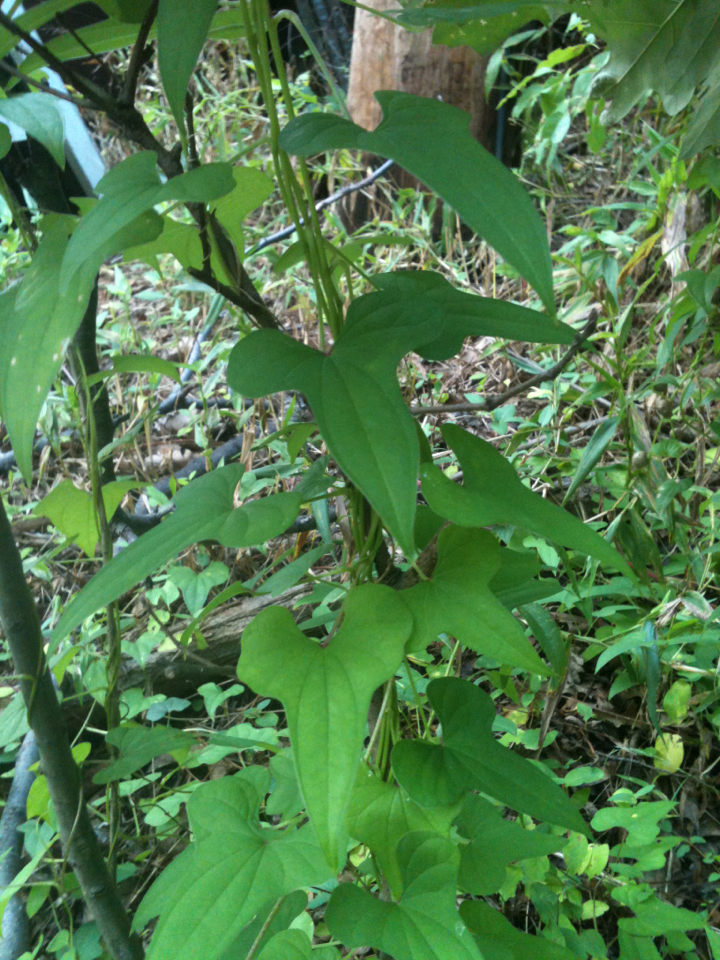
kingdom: Plantae
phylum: Tracheophyta
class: Liliopsida
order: Dioscoreales
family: Dioscoreaceae
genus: Dioscorea
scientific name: Dioscorea polystachya
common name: Chinese yam
